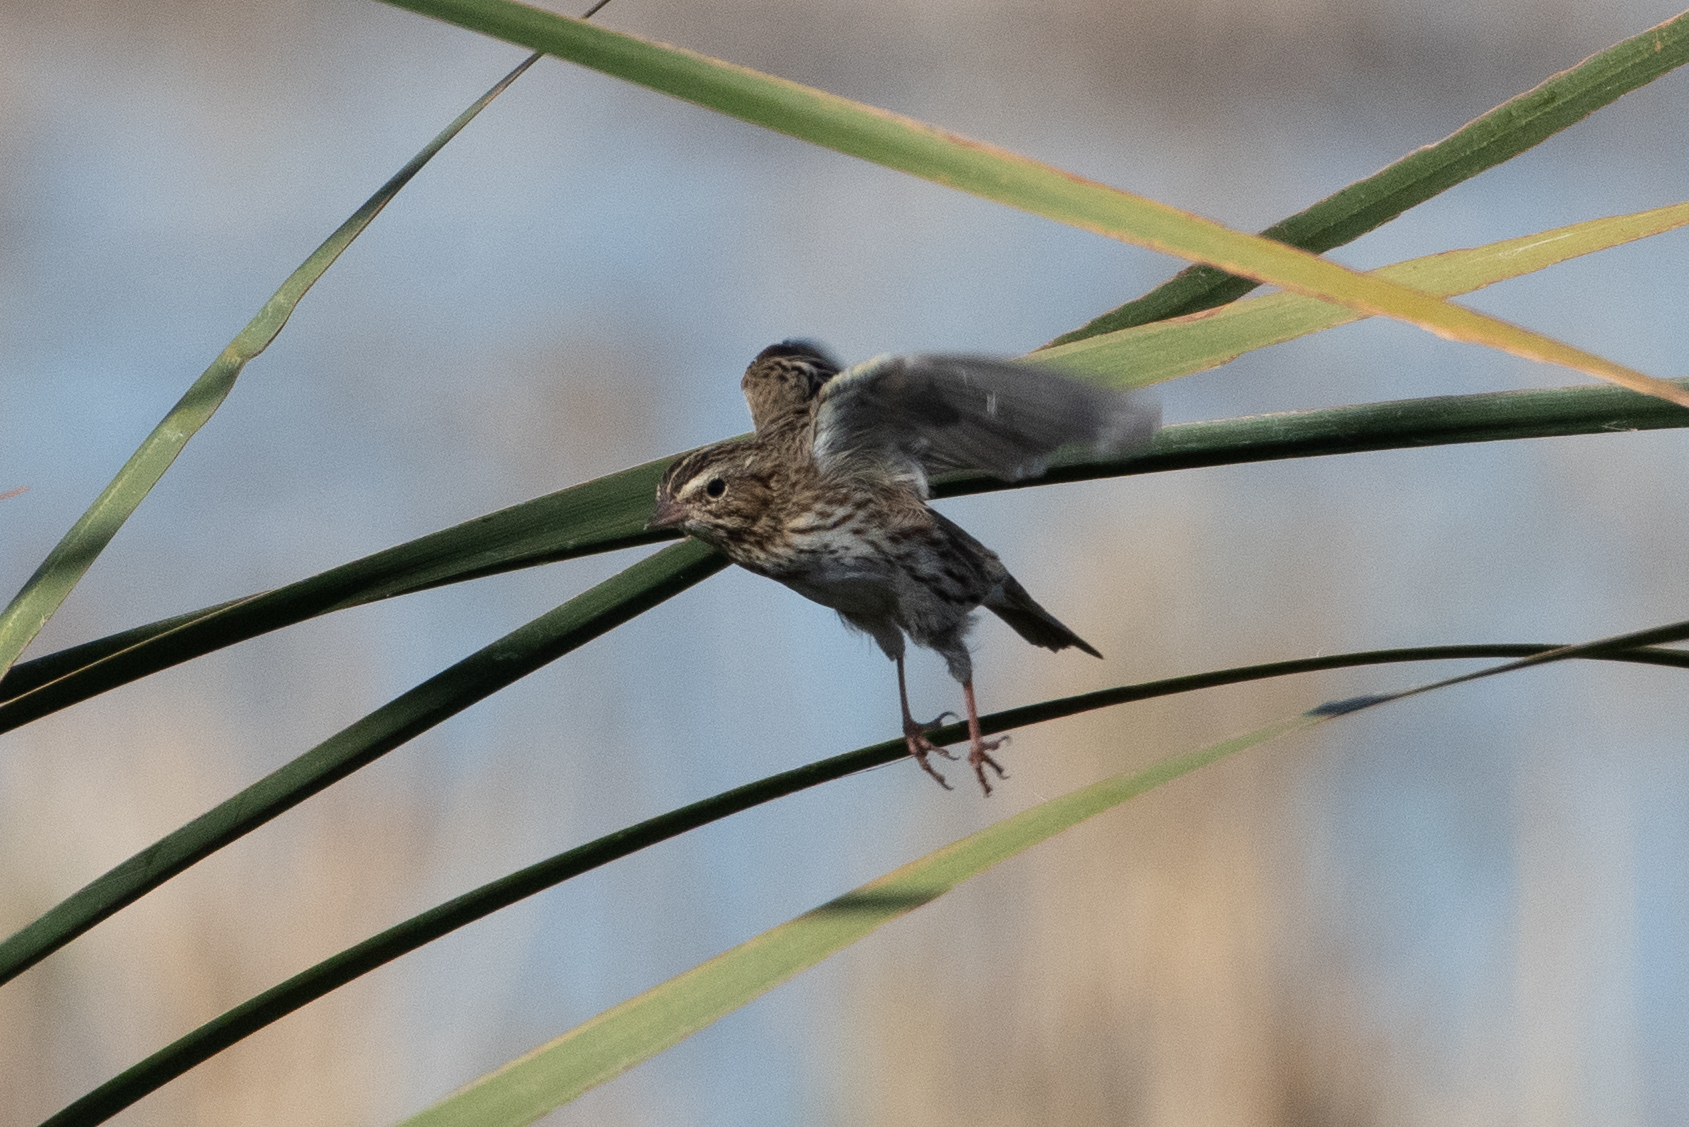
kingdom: Animalia
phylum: Chordata
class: Aves
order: Passeriformes
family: Passerellidae
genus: Passerculus
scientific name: Passerculus sandwichensis
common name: Savannah sparrow
